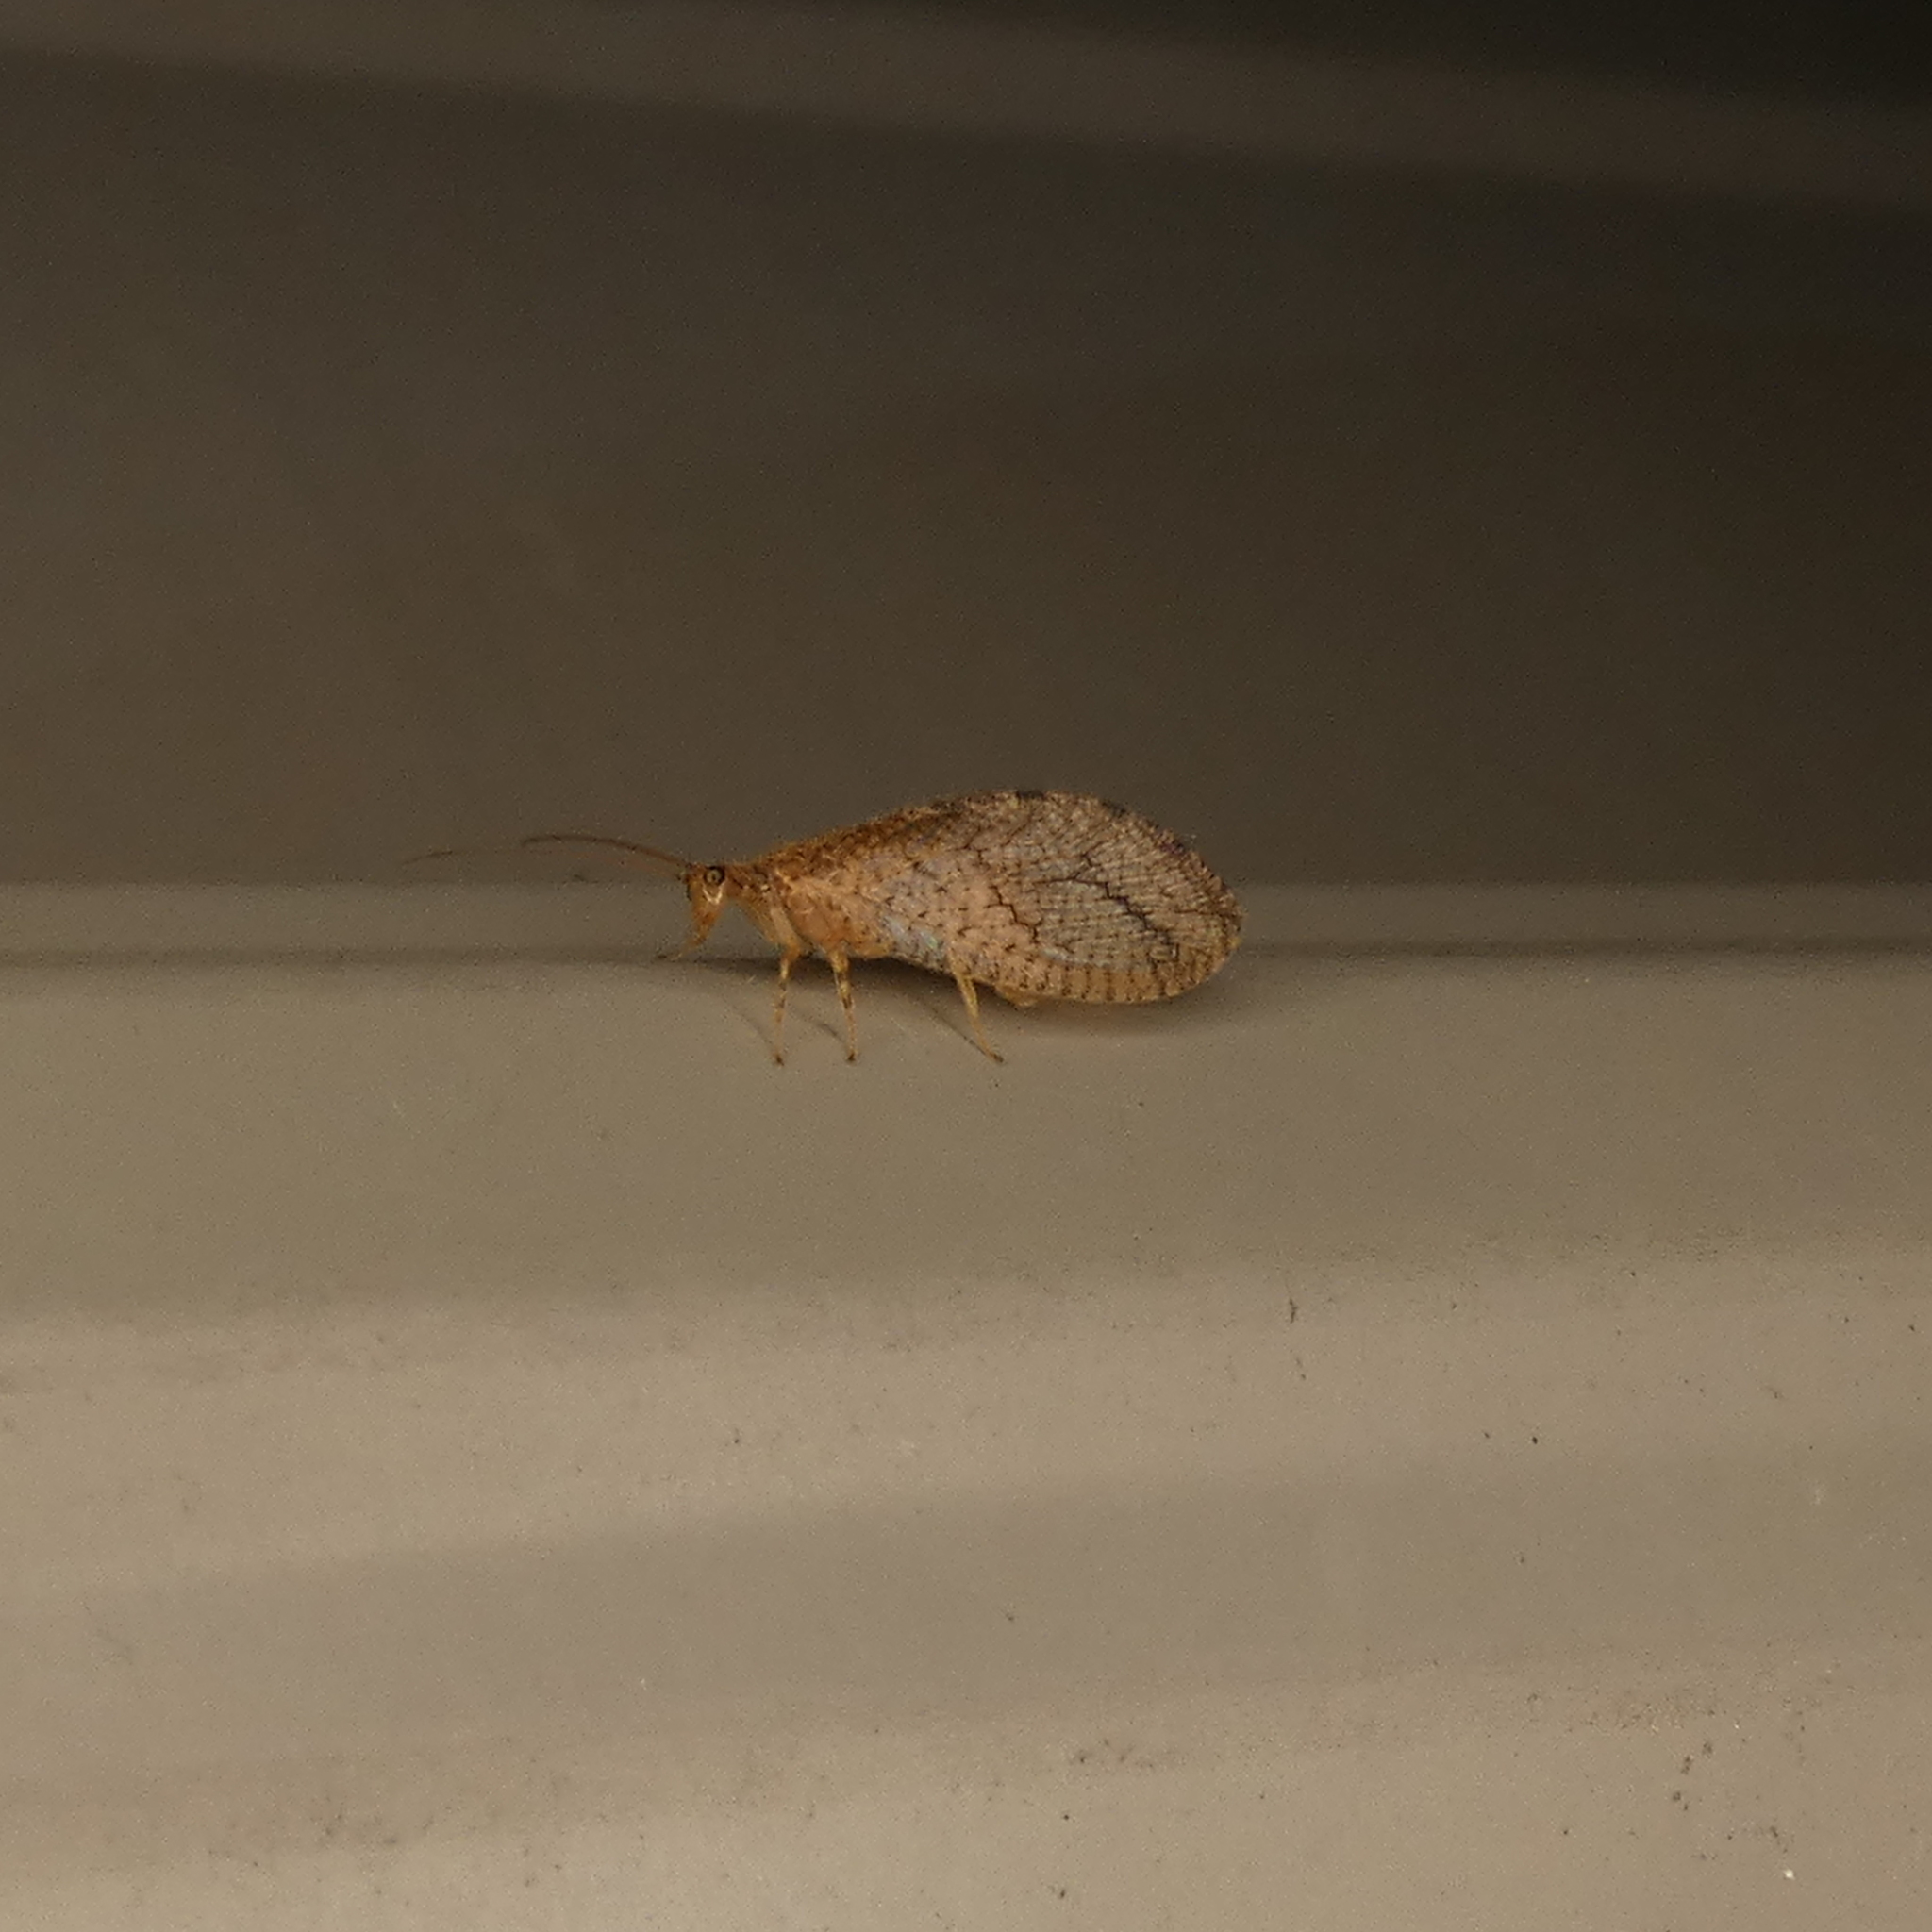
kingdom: Animalia
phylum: Arthropoda
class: Insecta
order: Neuroptera
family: Hemerobiidae
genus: Micromus
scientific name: Micromus posticus
